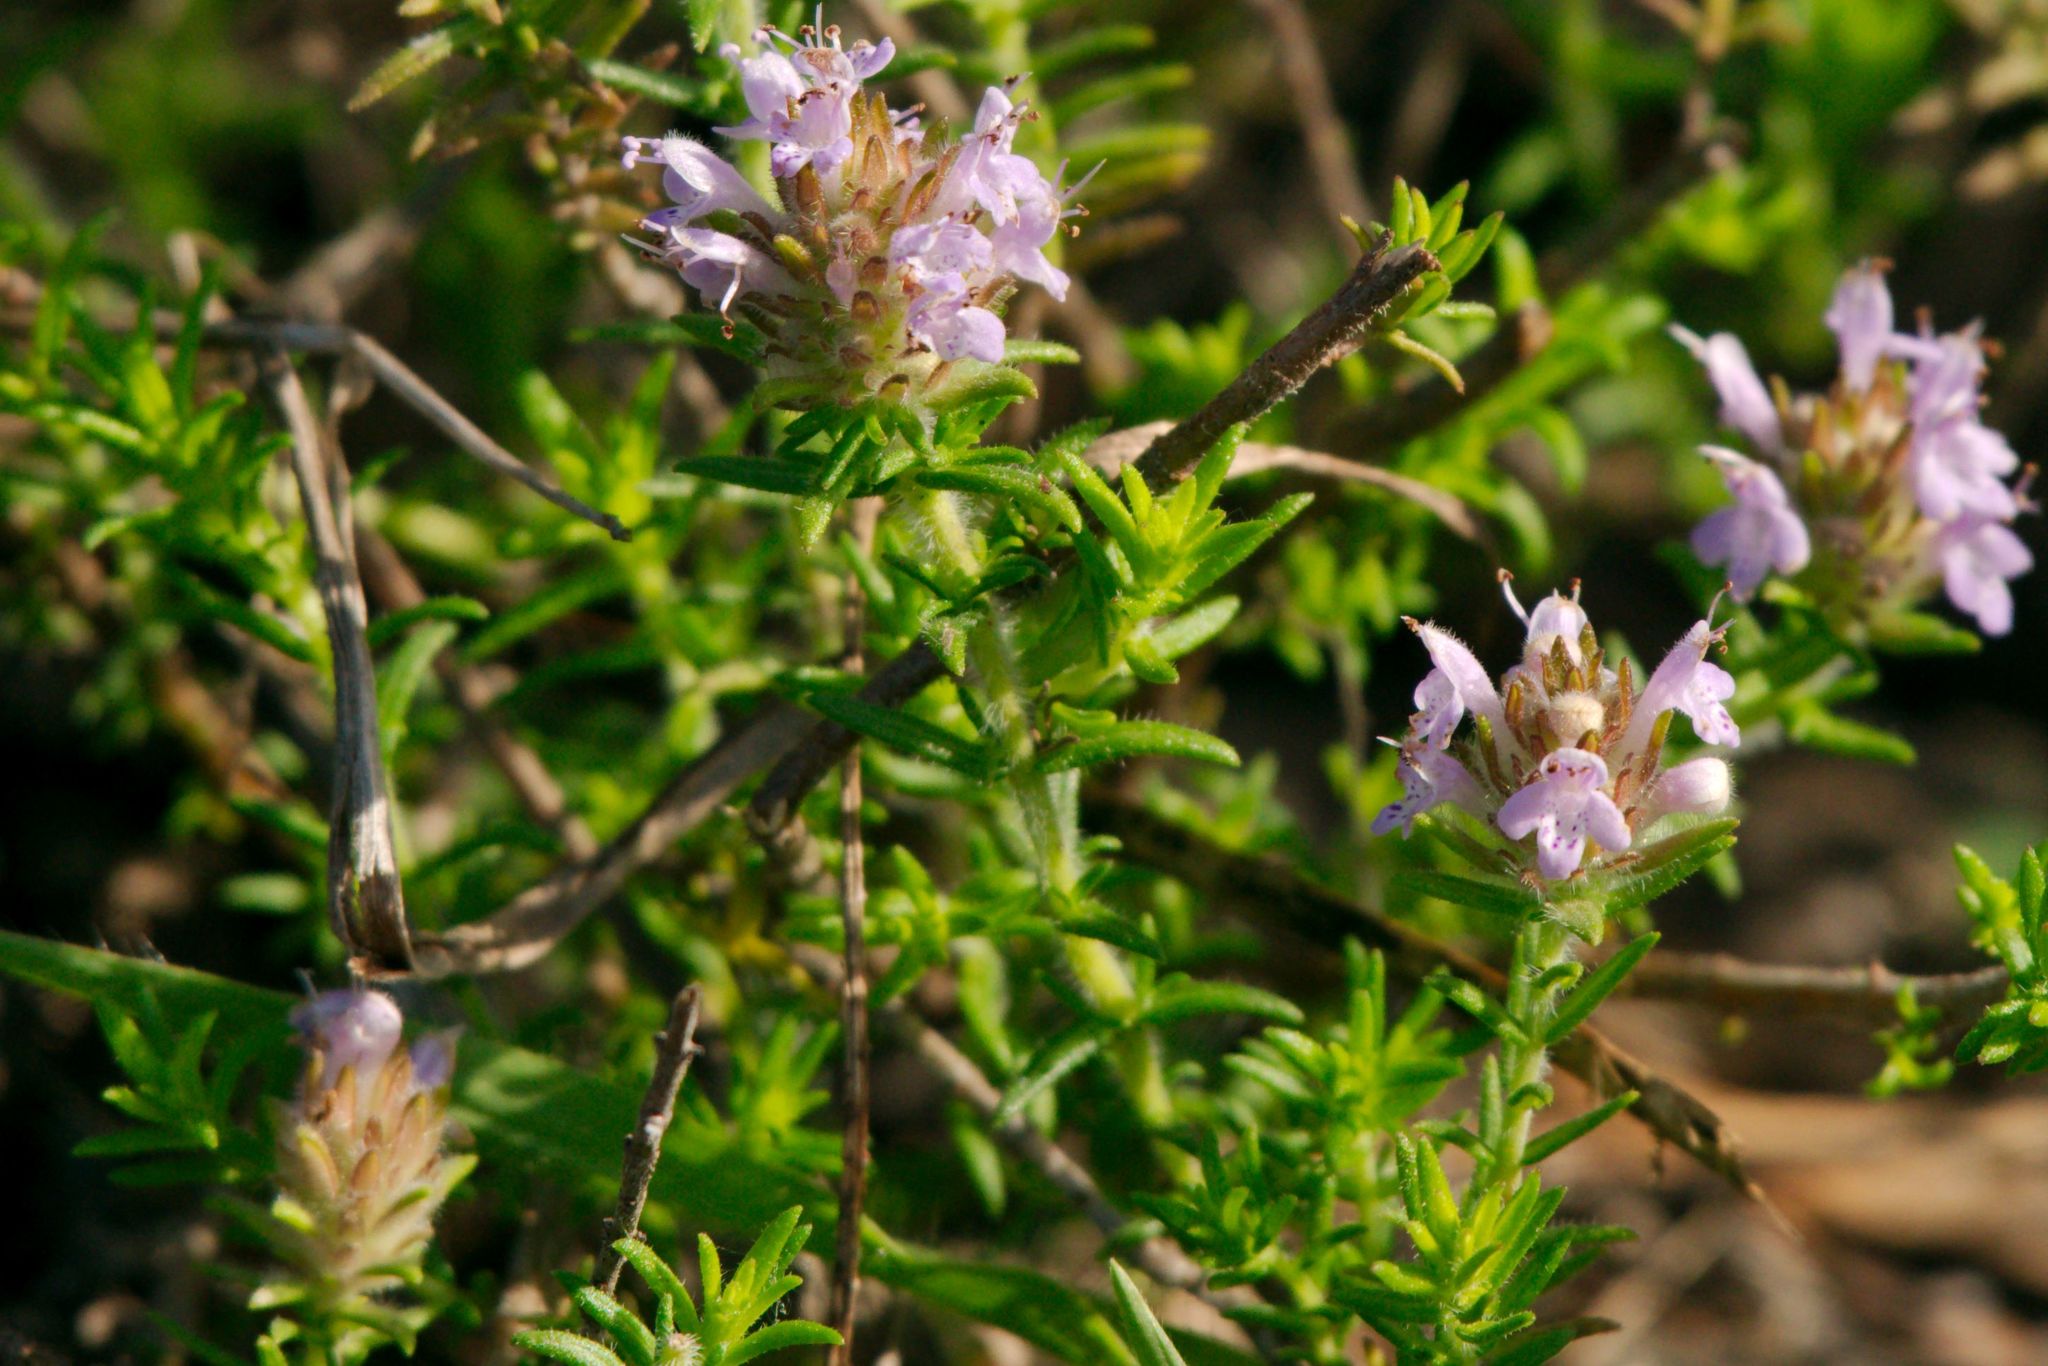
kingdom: Plantae
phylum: Tracheophyta
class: Magnoliopsida
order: Lamiales
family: Lamiaceae
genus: Piloblephis
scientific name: Piloblephis rigida
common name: Wild pennyroyal
